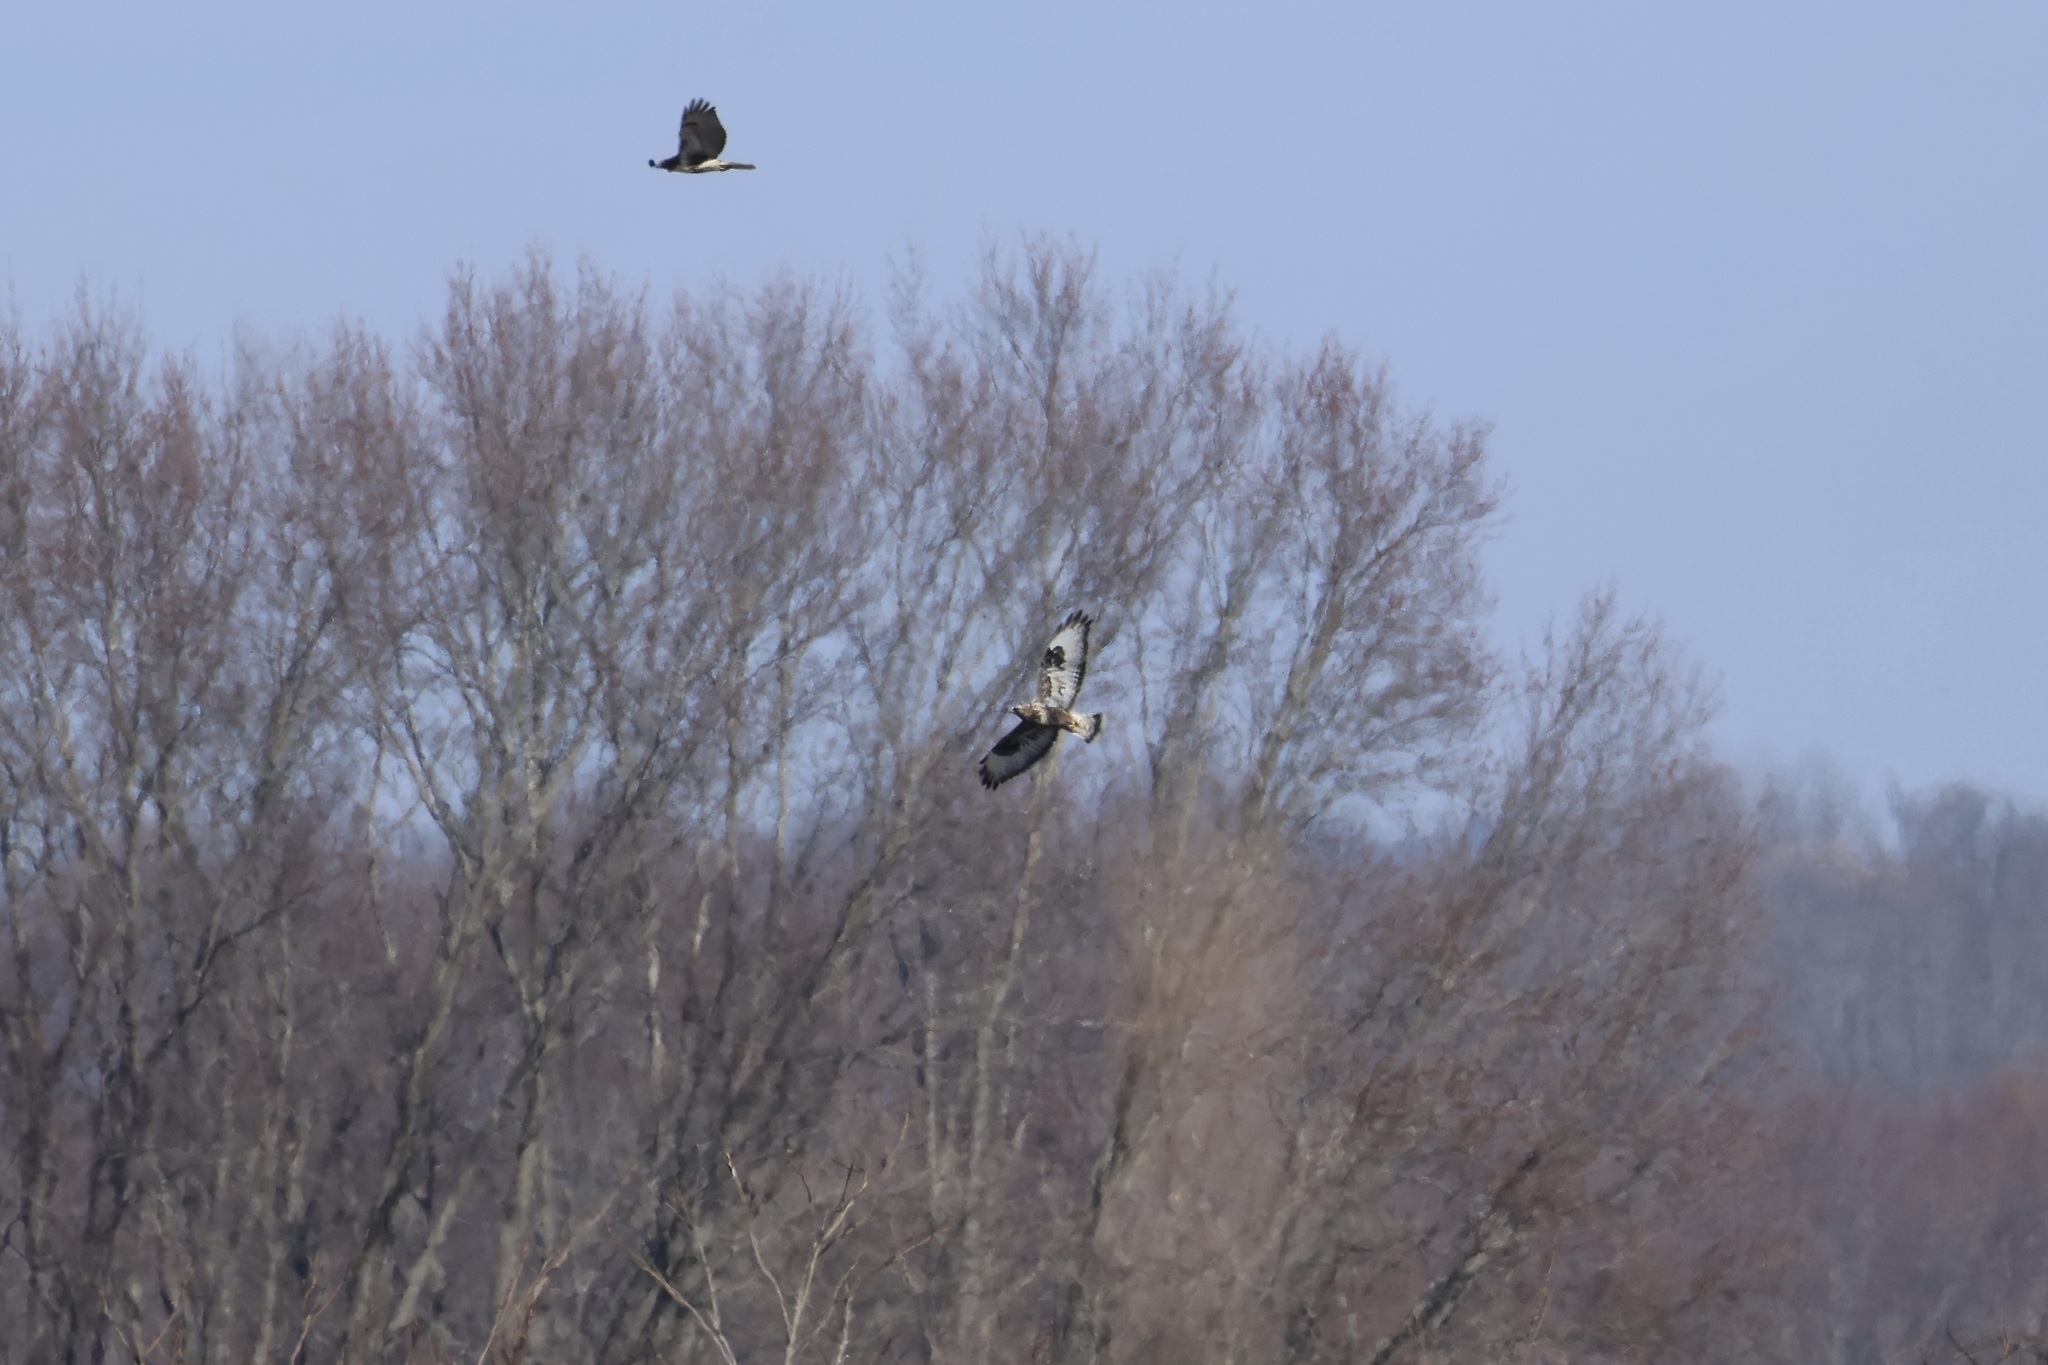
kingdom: Animalia
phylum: Chordata
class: Aves
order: Accipitriformes
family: Accipitridae
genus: Buteo
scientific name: Buteo lagopus
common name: Rough-legged buzzard
